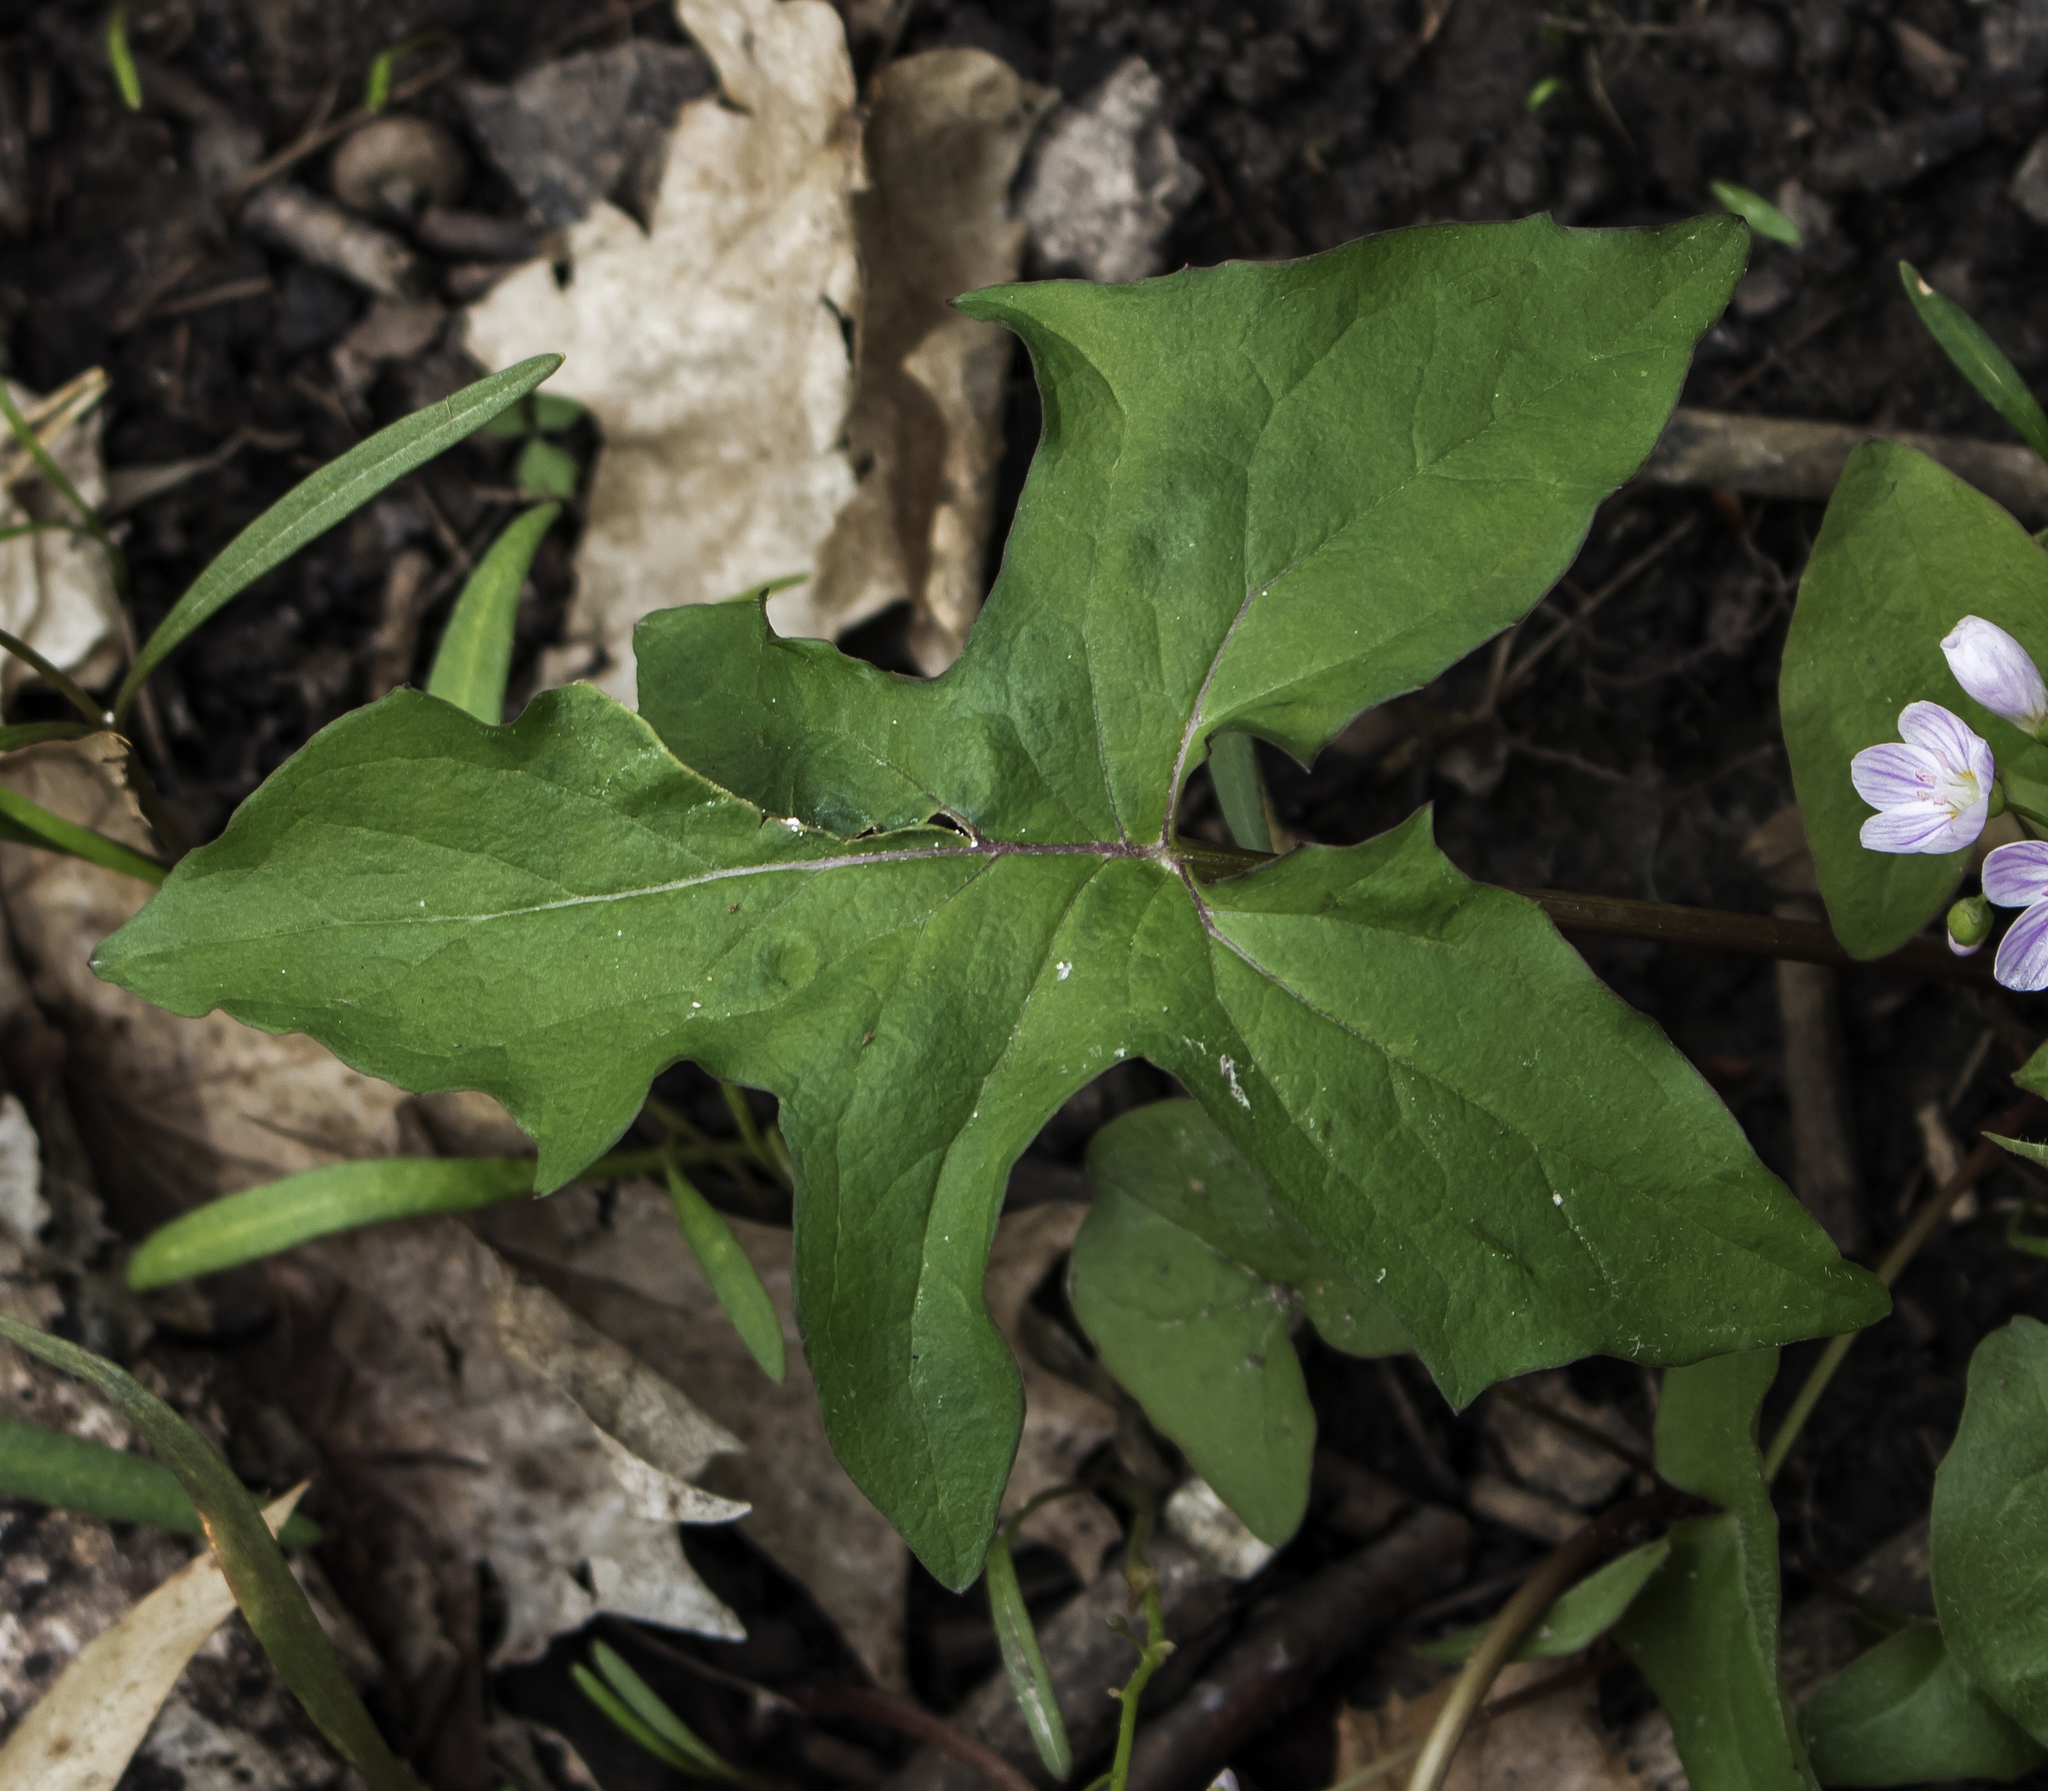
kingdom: Plantae
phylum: Tracheophyta
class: Magnoliopsida
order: Asterales
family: Asteraceae
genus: Nabalus
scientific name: Nabalus albus
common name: White rattlesnakeroot
